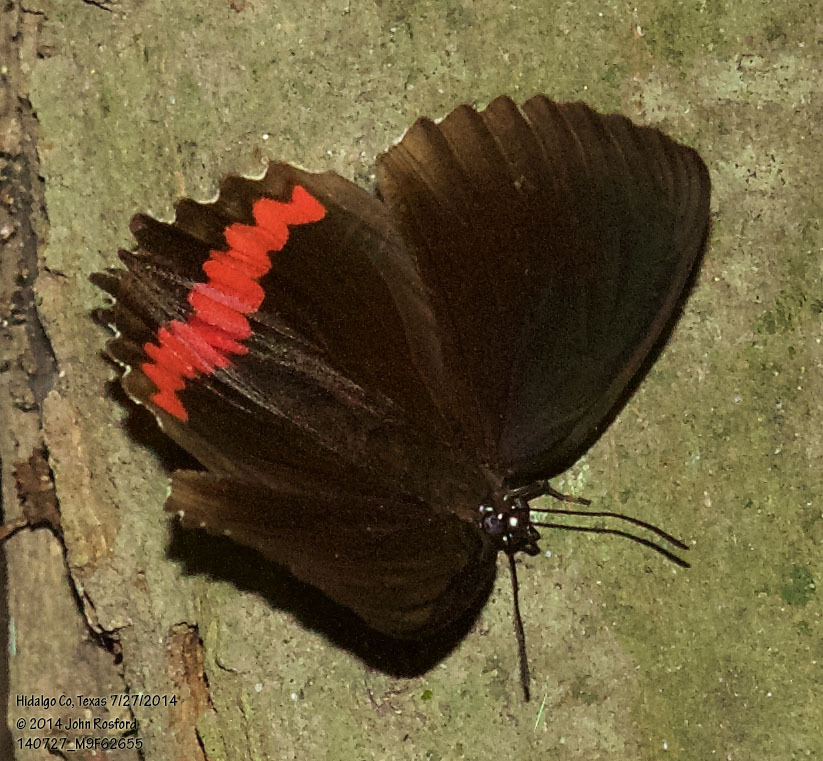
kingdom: Animalia
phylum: Arthropoda
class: Insecta
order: Lepidoptera
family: Nymphalidae
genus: Biblis
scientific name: Biblis aganisa
